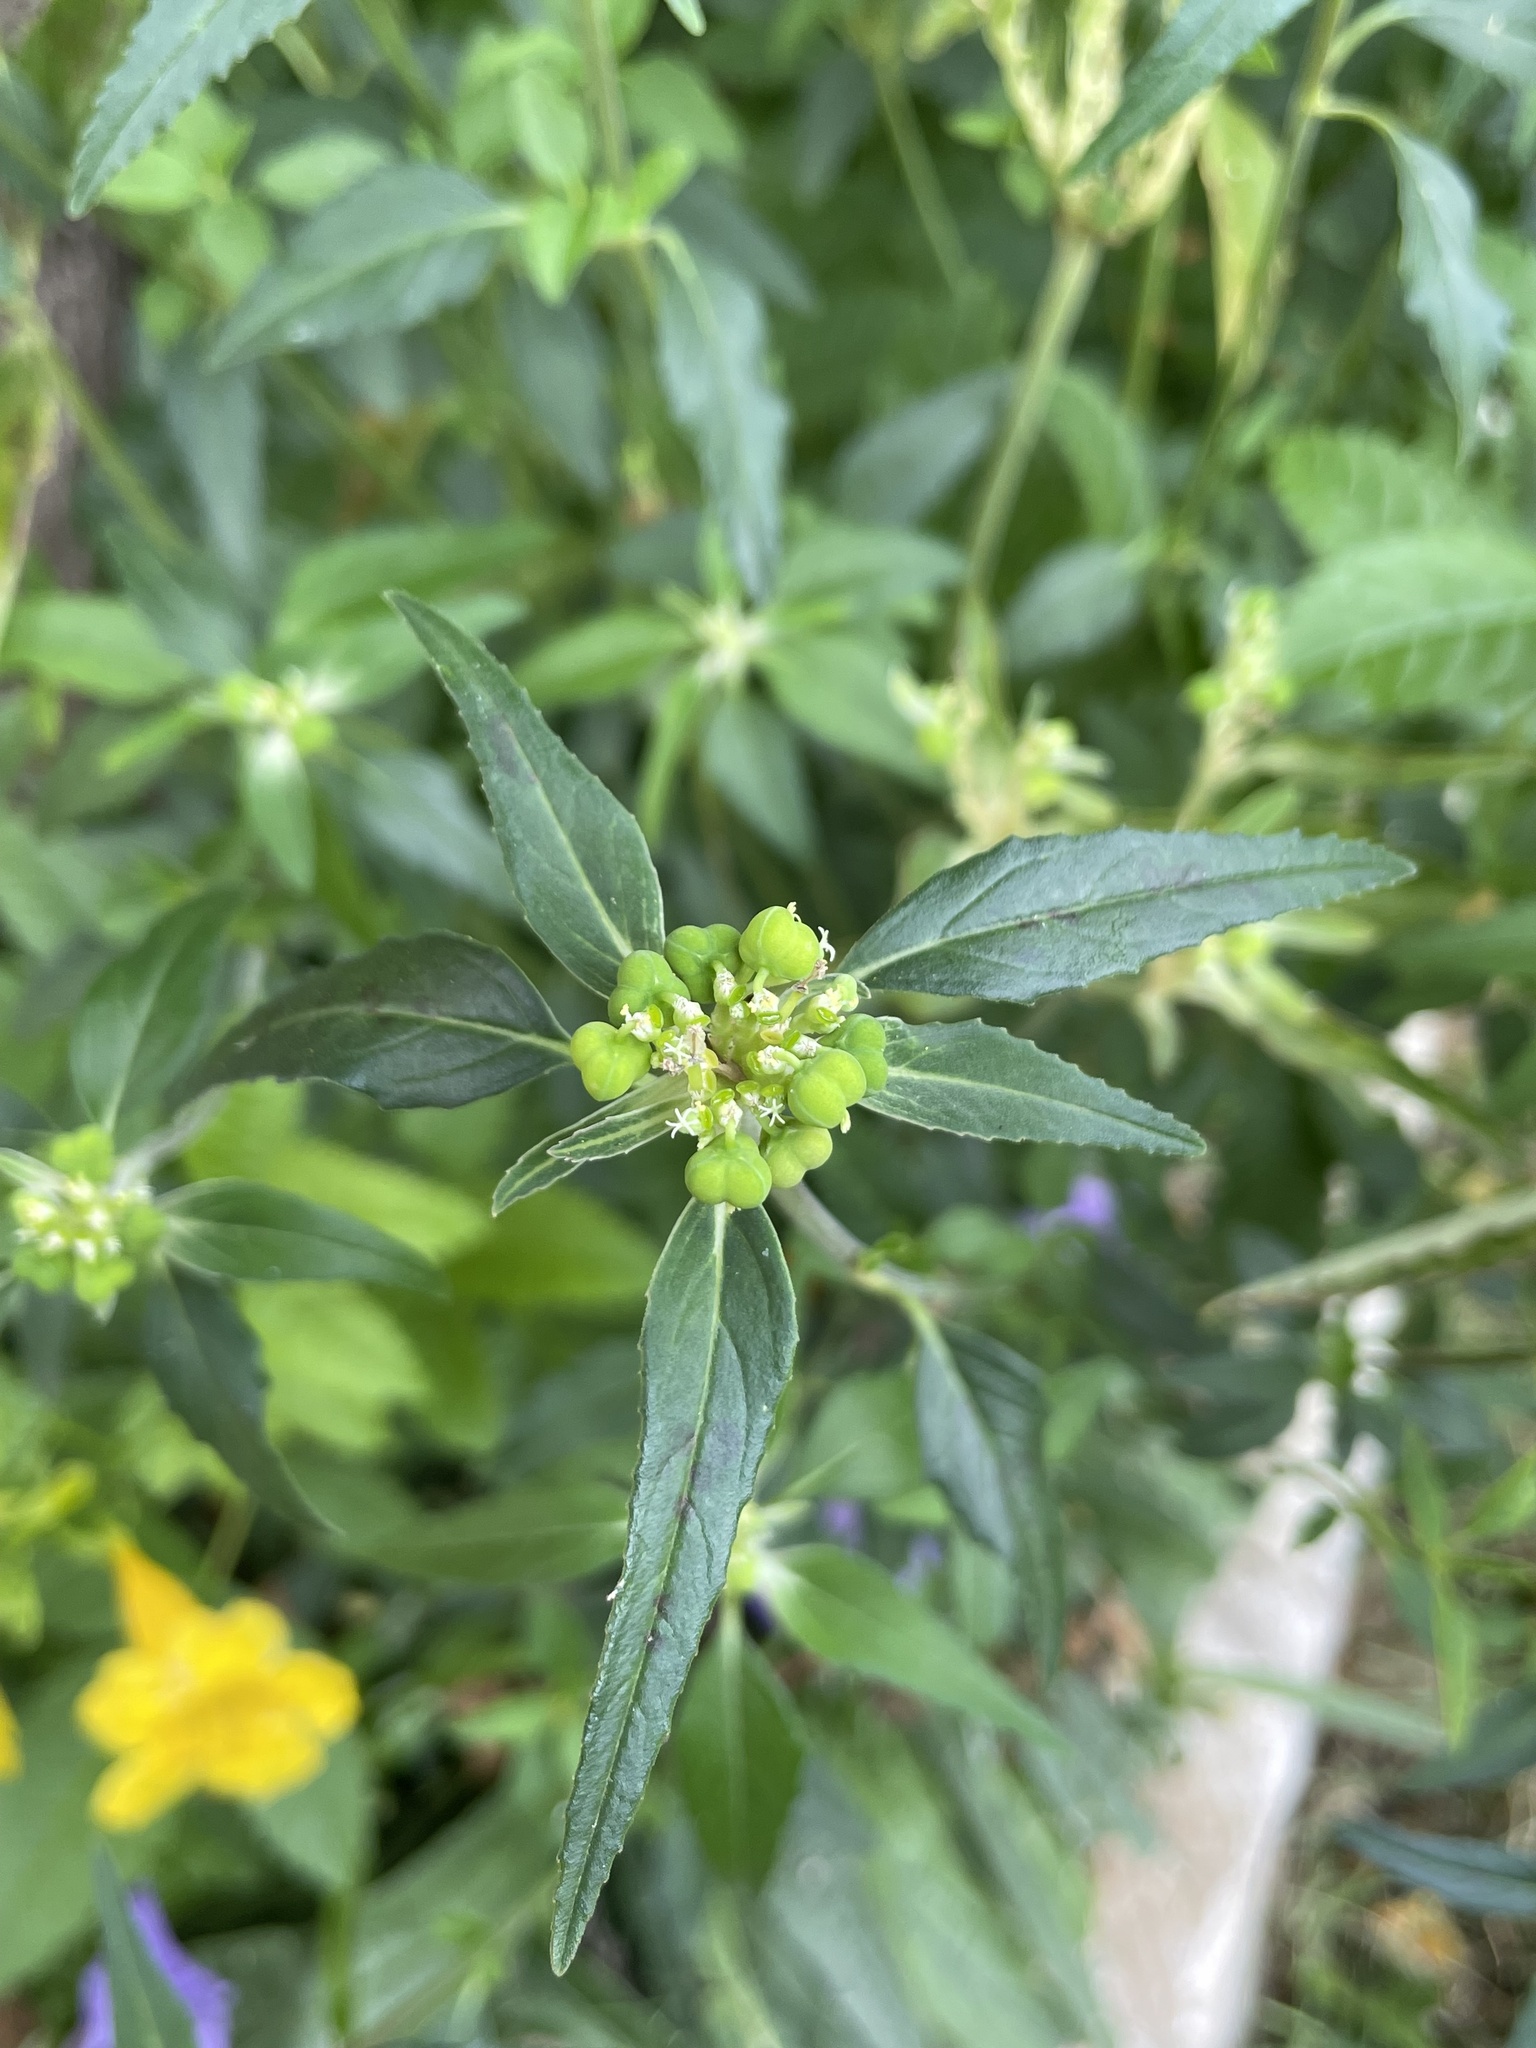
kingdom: Plantae
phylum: Tracheophyta
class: Magnoliopsida
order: Malpighiales
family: Euphorbiaceae
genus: Euphorbia
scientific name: Euphorbia dentata
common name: Dentate spurge
